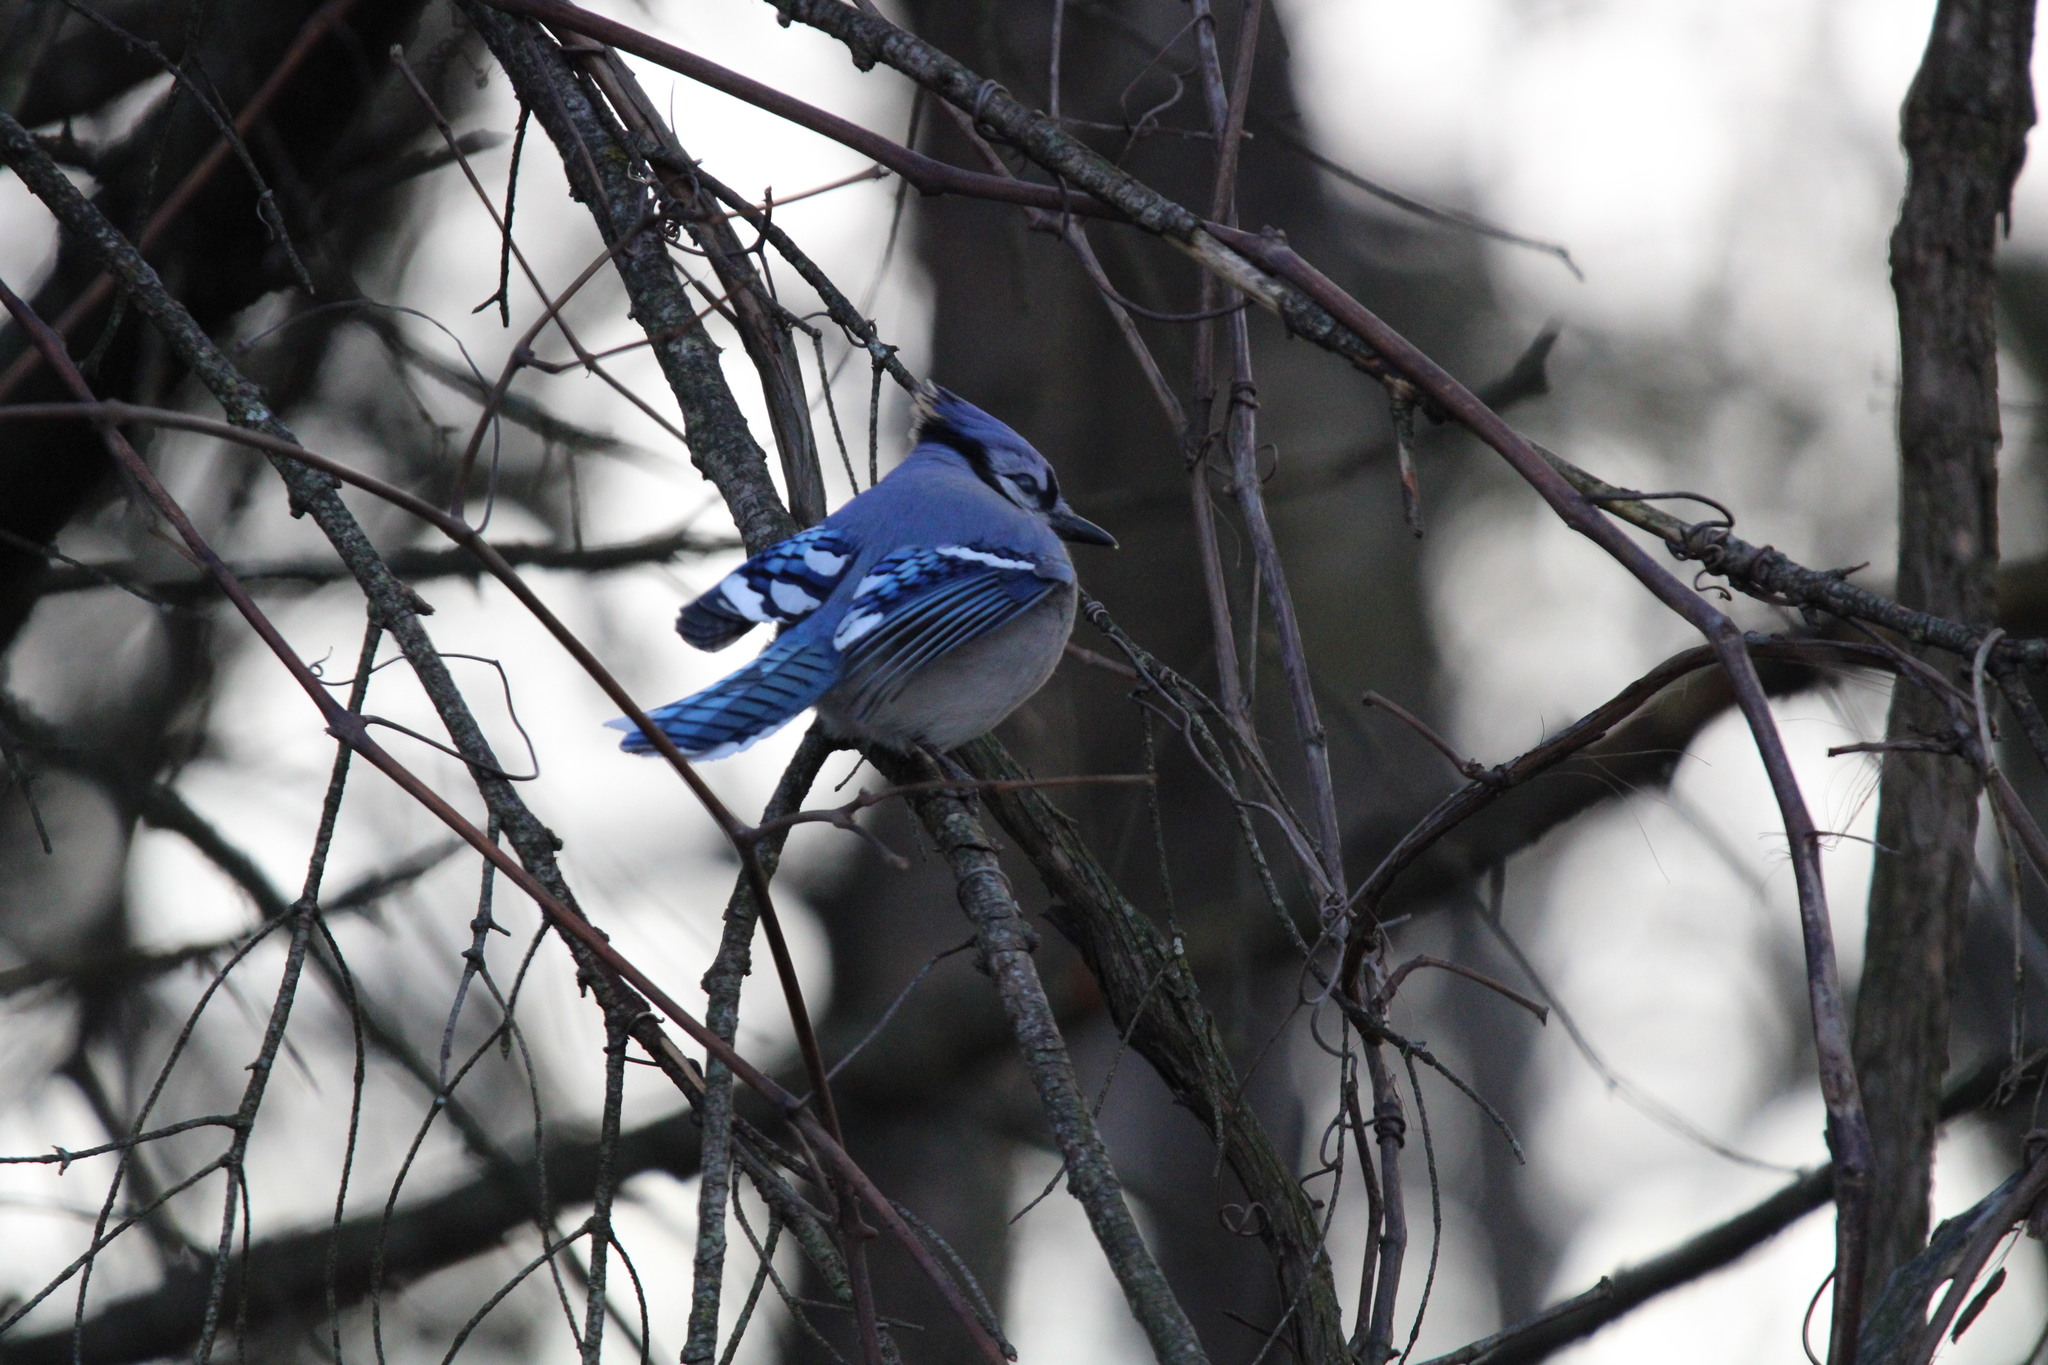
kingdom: Animalia
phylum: Chordata
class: Aves
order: Passeriformes
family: Corvidae
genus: Cyanocitta
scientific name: Cyanocitta cristata
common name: Blue jay
